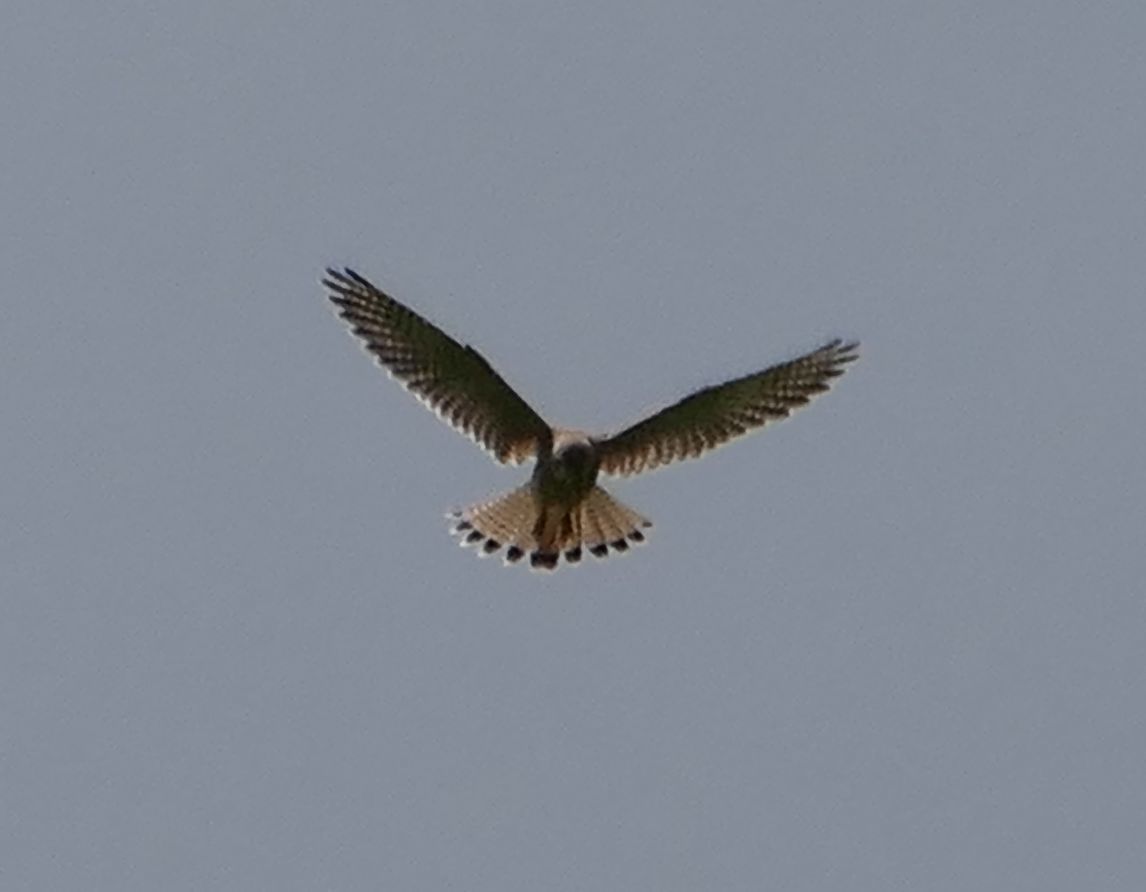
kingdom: Animalia
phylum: Chordata
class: Aves
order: Falconiformes
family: Falconidae
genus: Falco
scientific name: Falco tinnunculus
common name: Common kestrel
